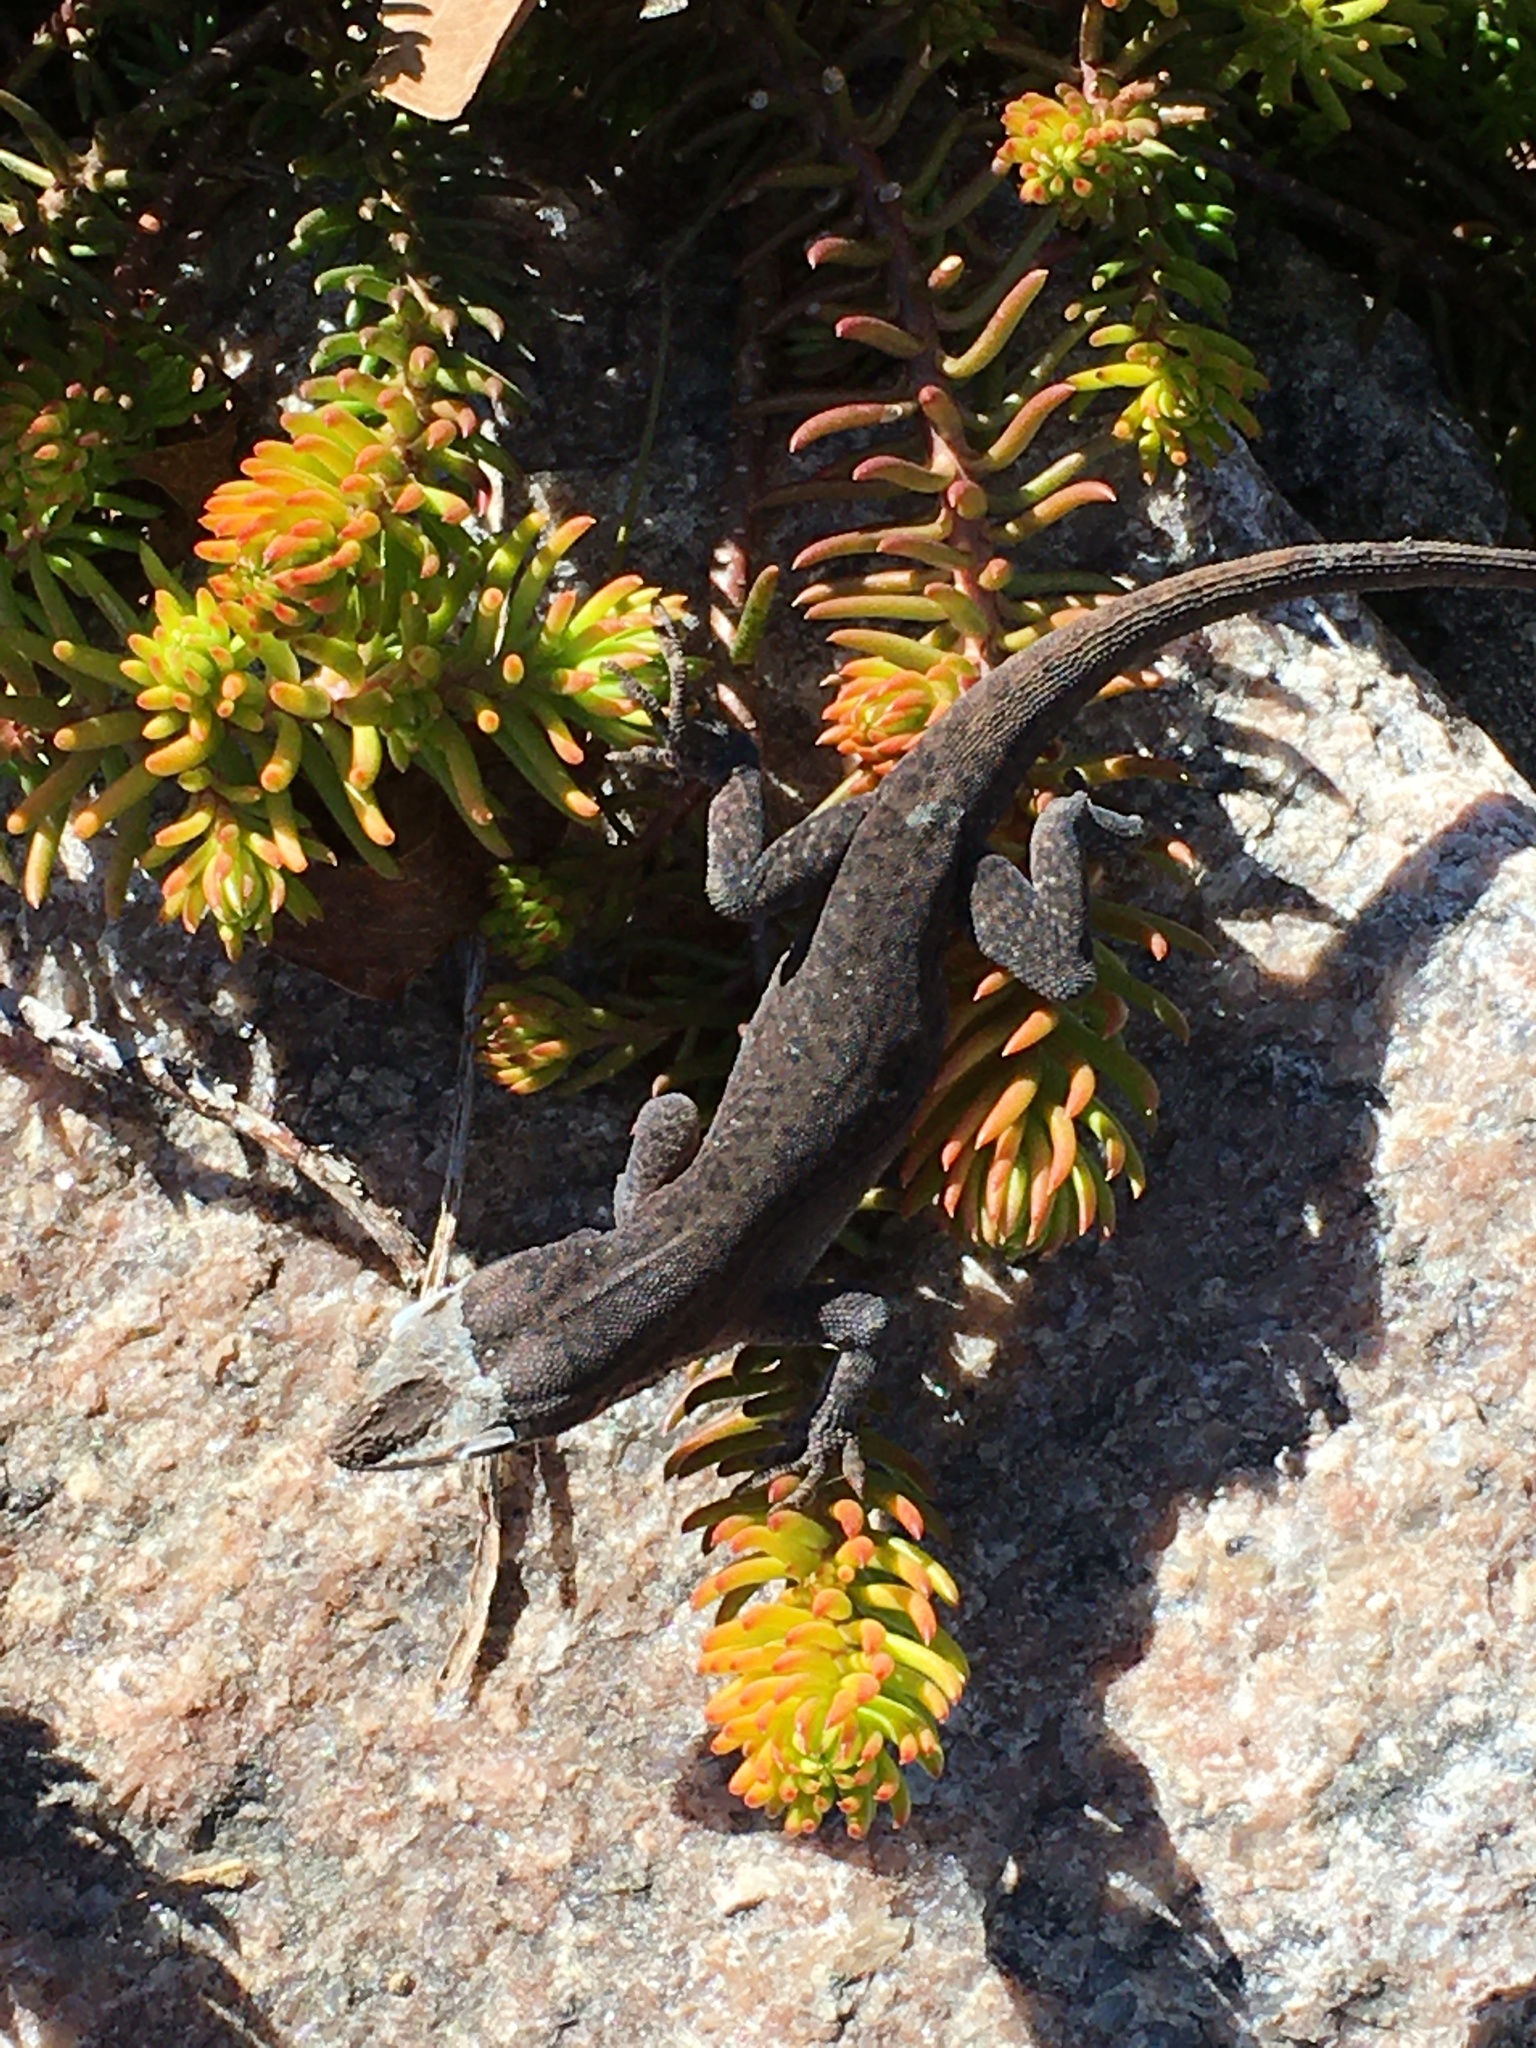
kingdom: Animalia
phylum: Chordata
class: Squamata
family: Dactyloidae
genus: Anolis
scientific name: Anolis carolinensis
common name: Green anole
